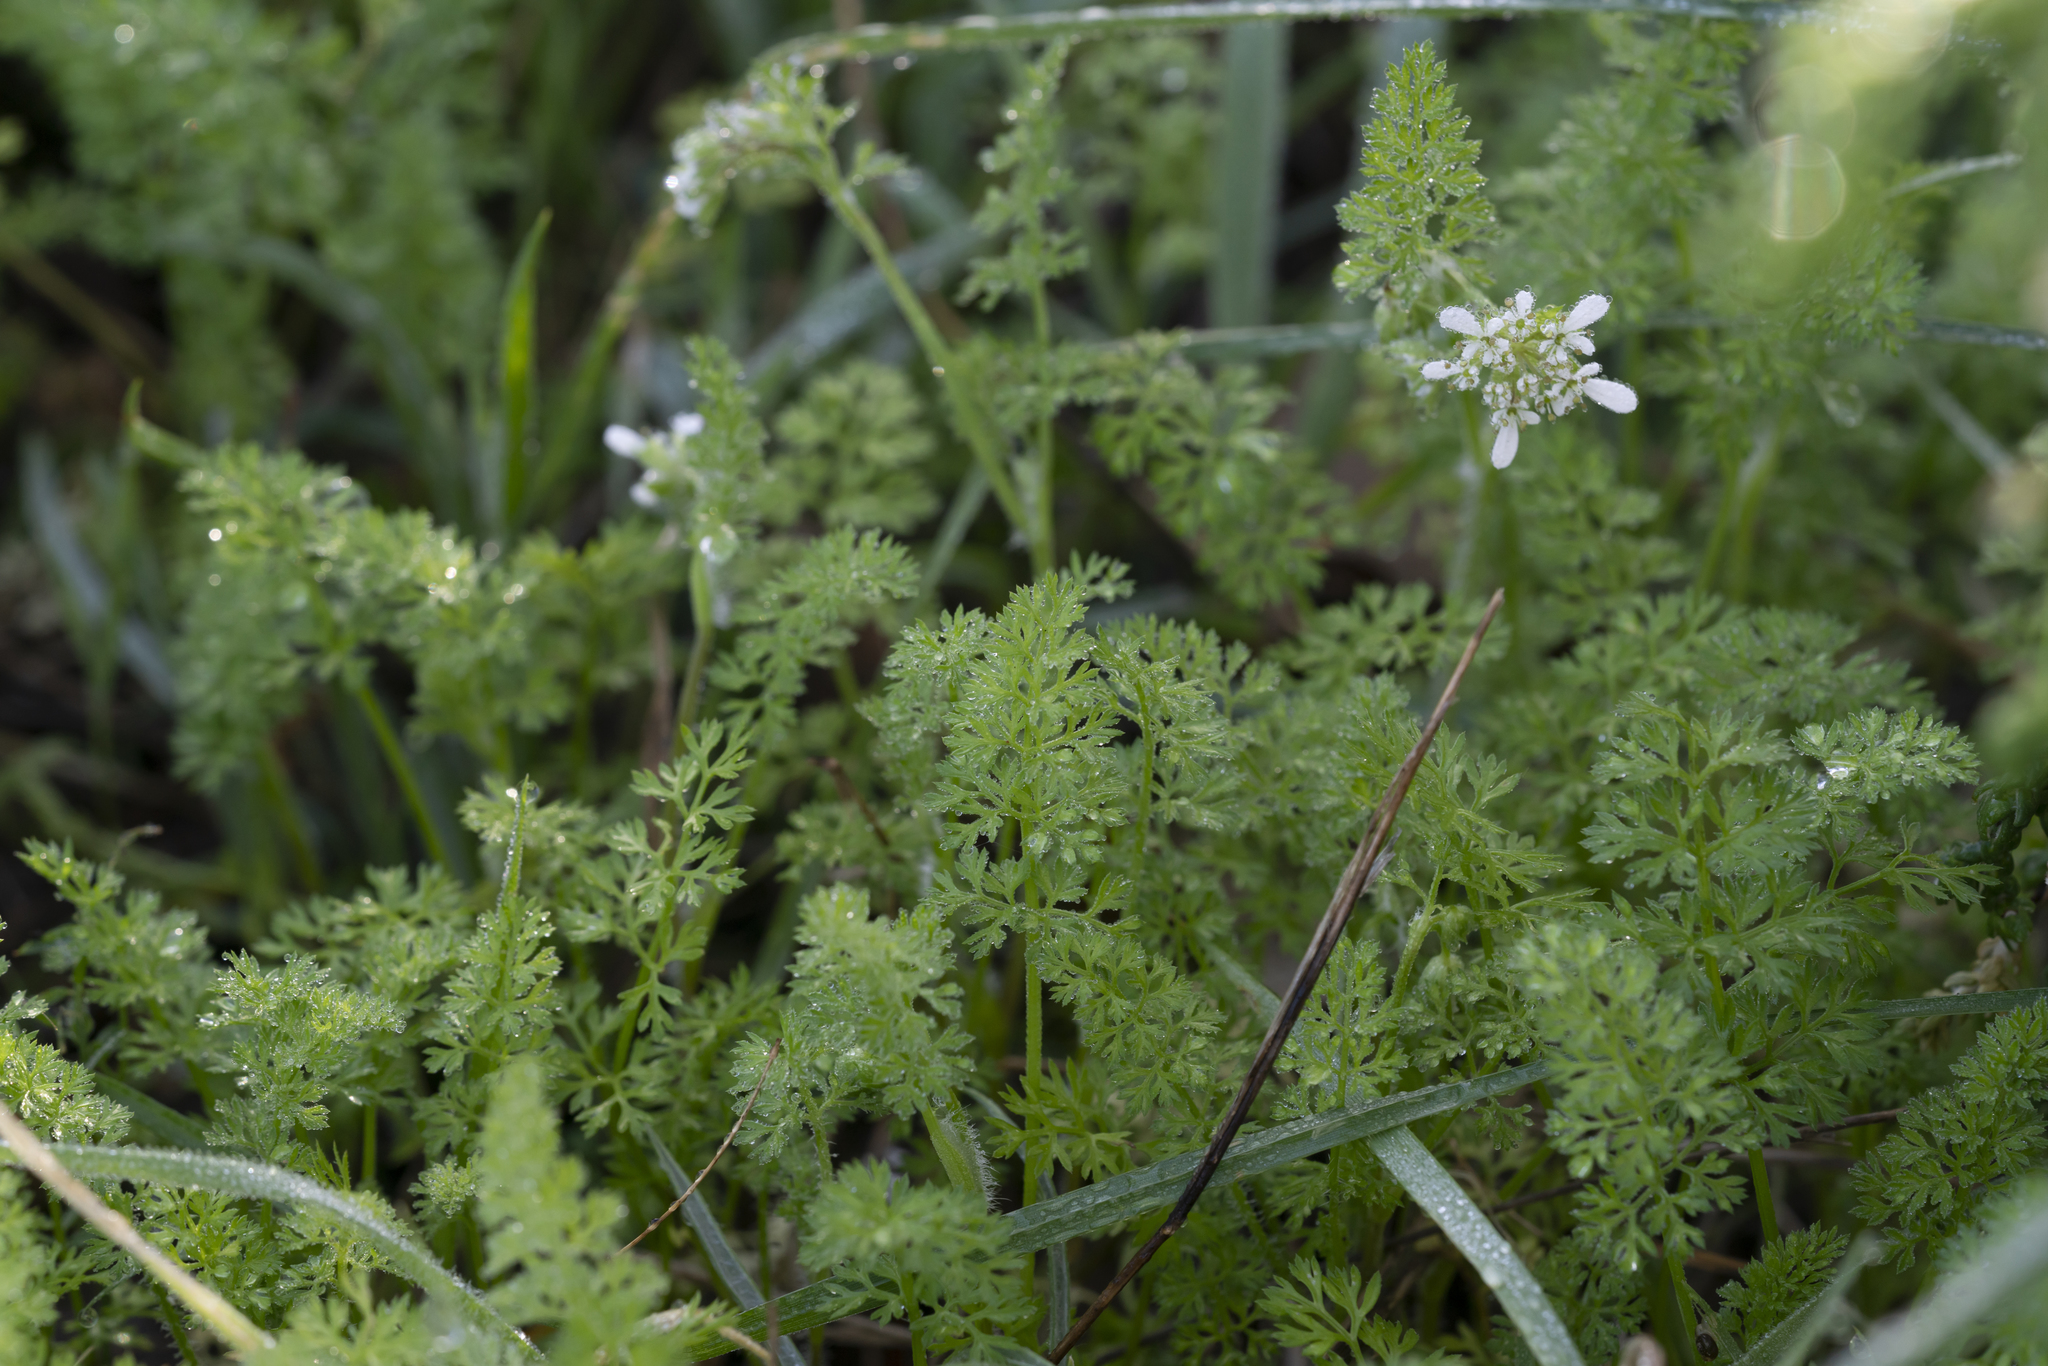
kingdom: Plantae
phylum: Tracheophyta
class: Magnoliopsida
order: Apiales
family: Apiaceae
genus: Scandix
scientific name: Scandix
